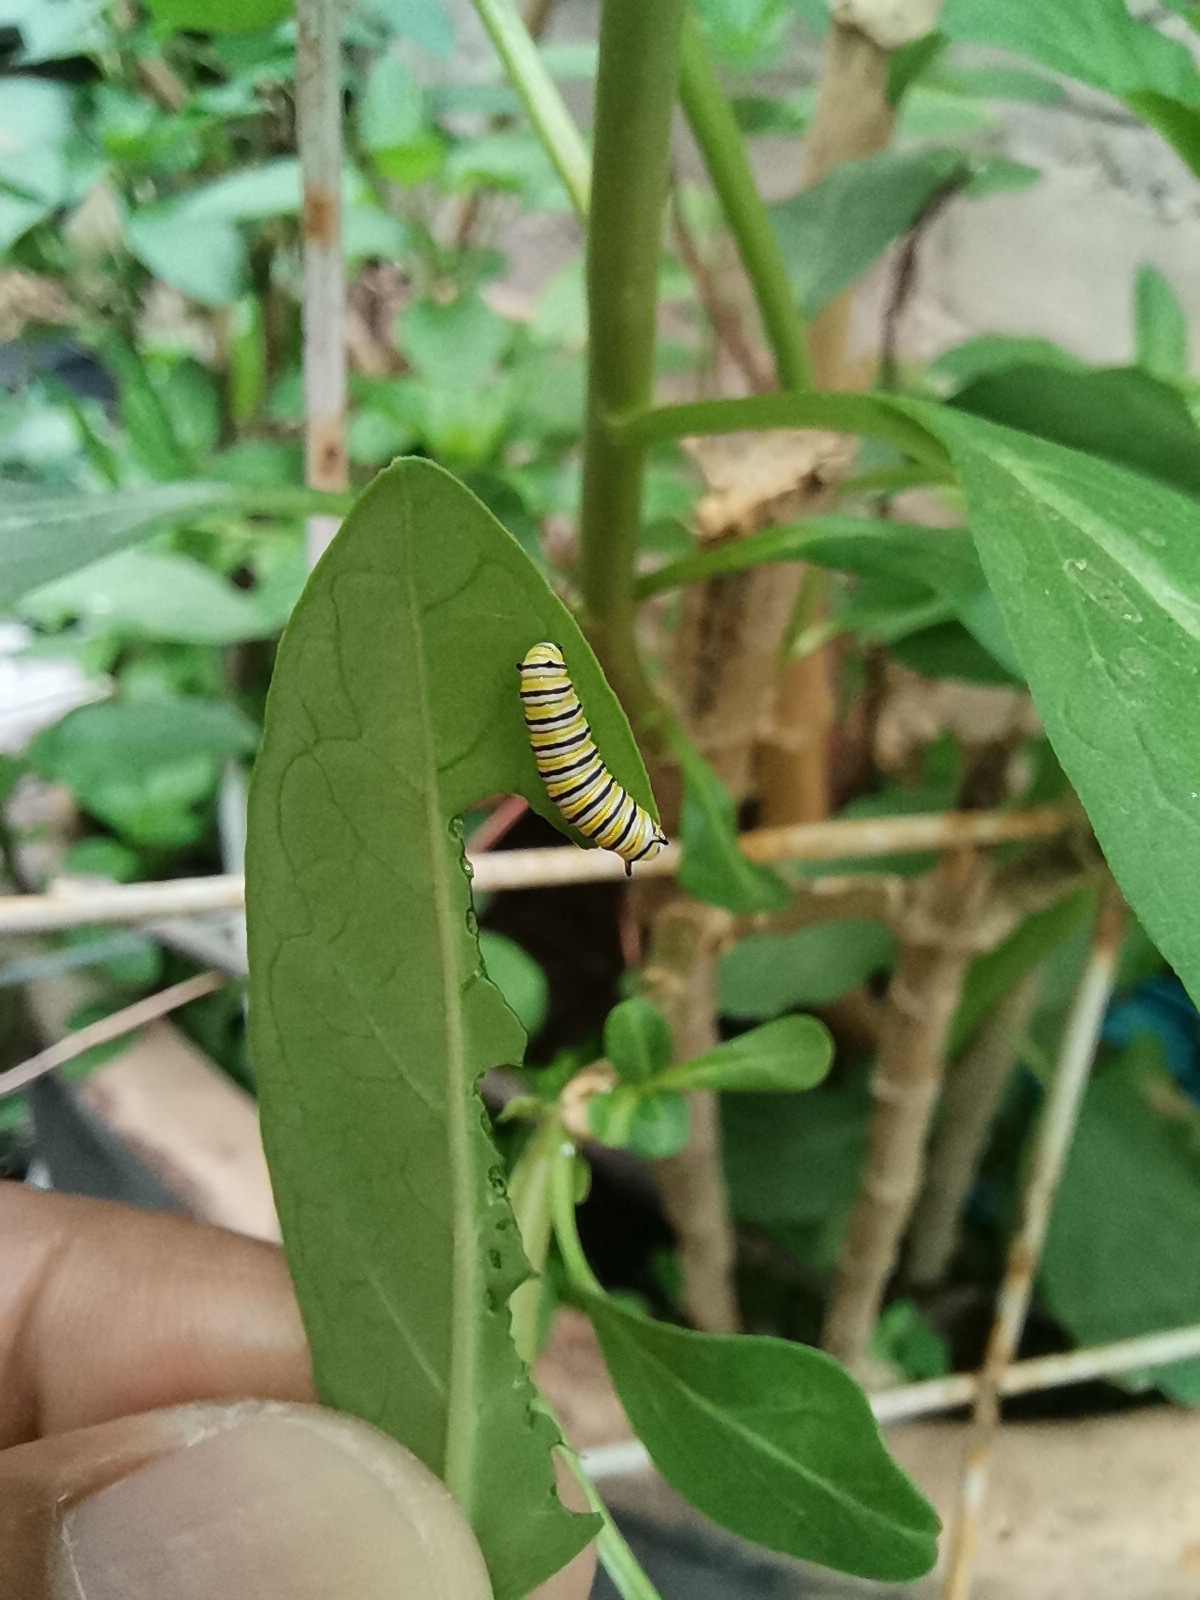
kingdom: Animalia
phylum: Arthropoda
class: Insecta
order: Lepidoptera
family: Nymphalidae
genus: Danaus
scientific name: Danaus plexippus
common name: Monarch
